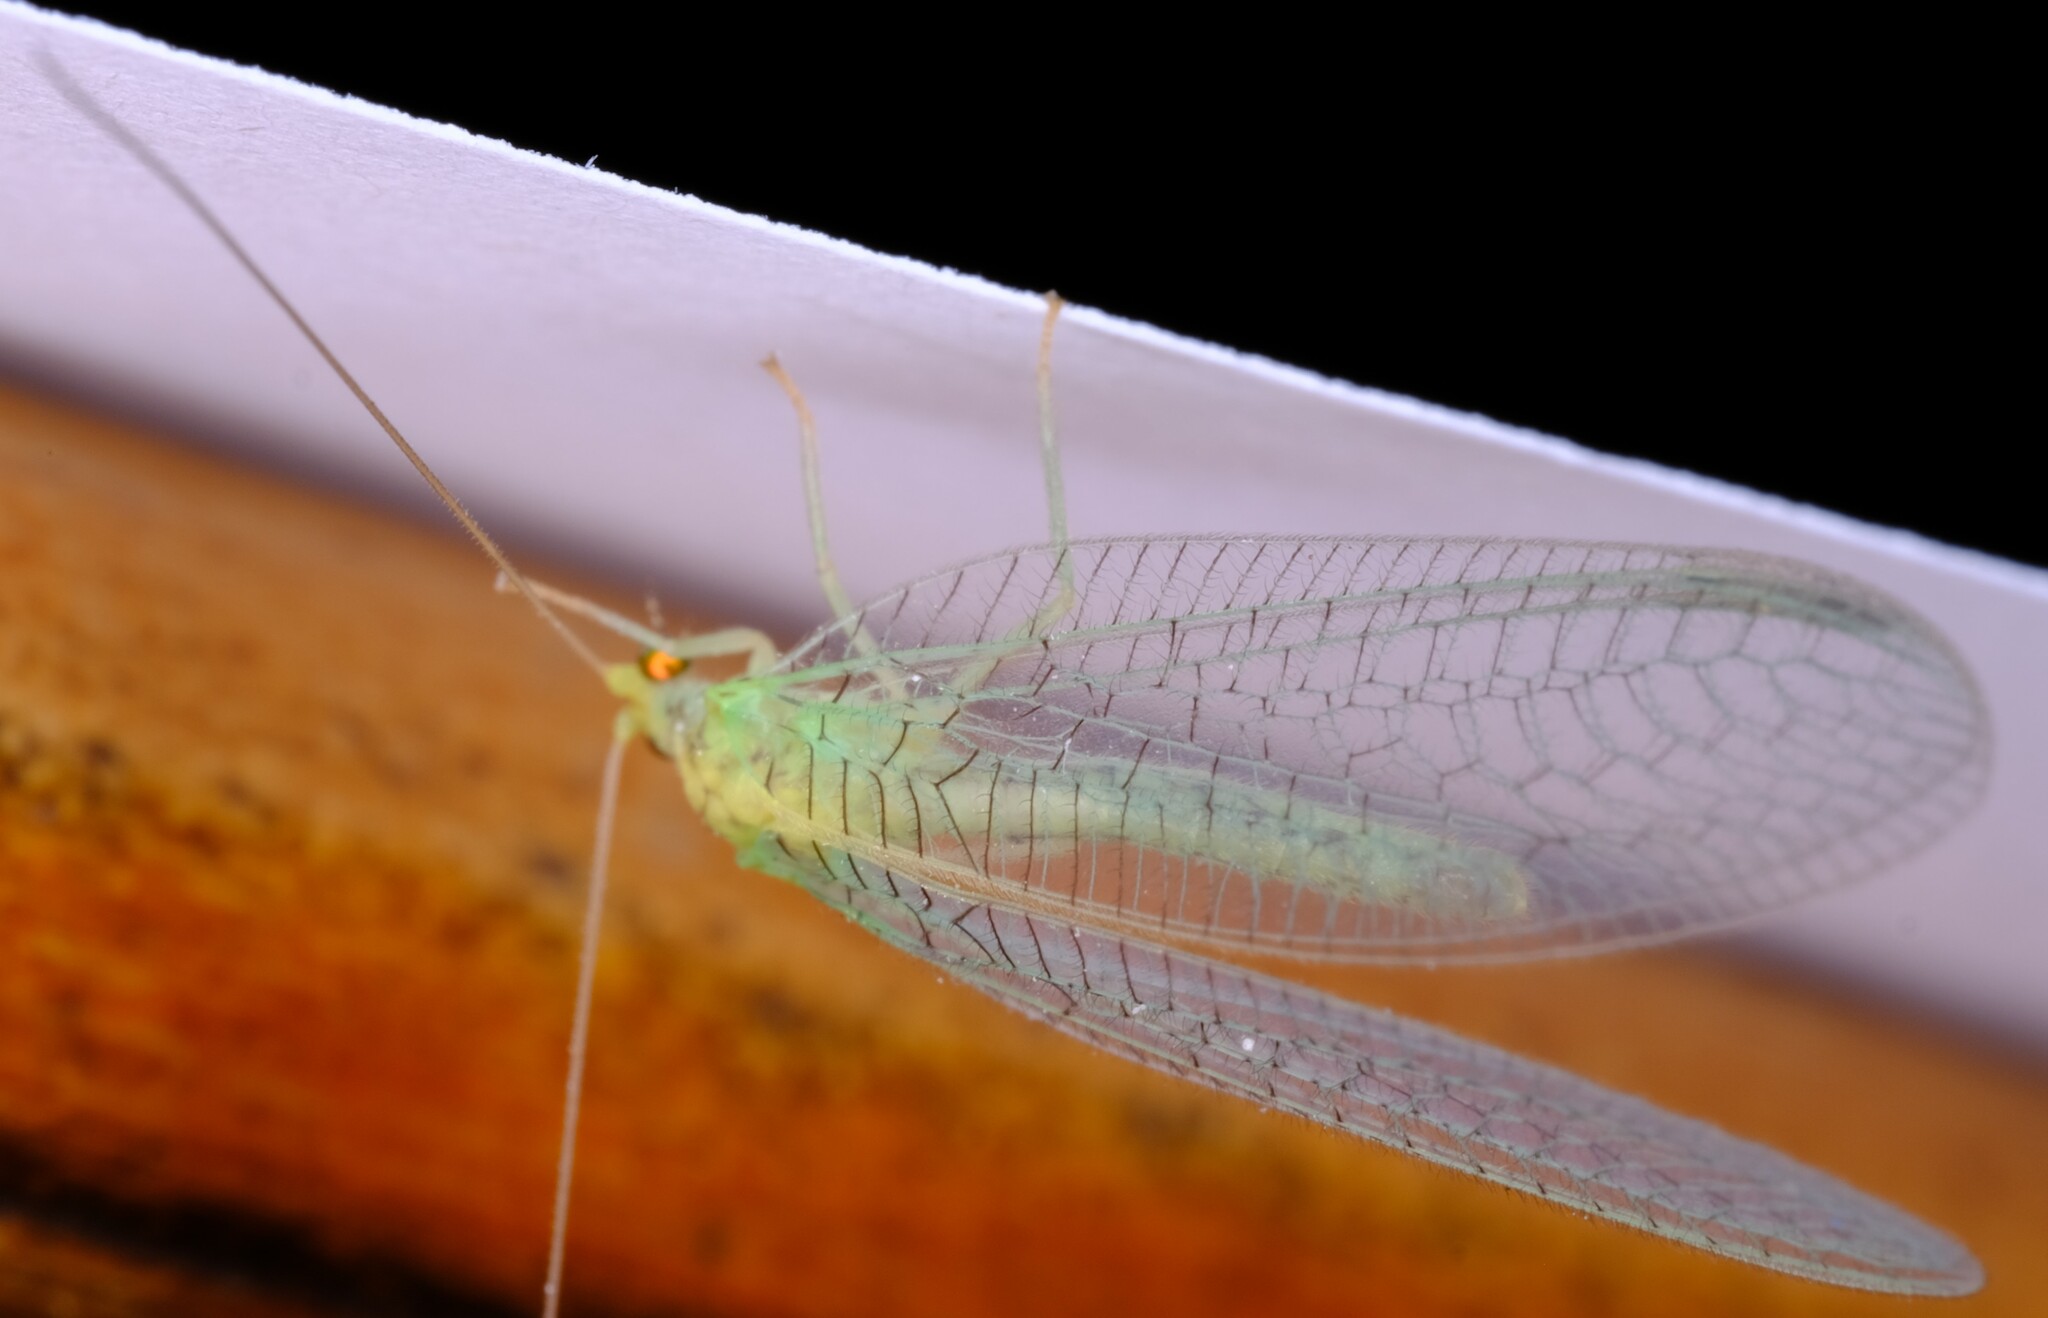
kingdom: Animalia
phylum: Arthropoda
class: Insecta
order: Neuroptera
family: Chrysopidae
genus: Pseudomallada
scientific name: Pseudomallada edwardsi
